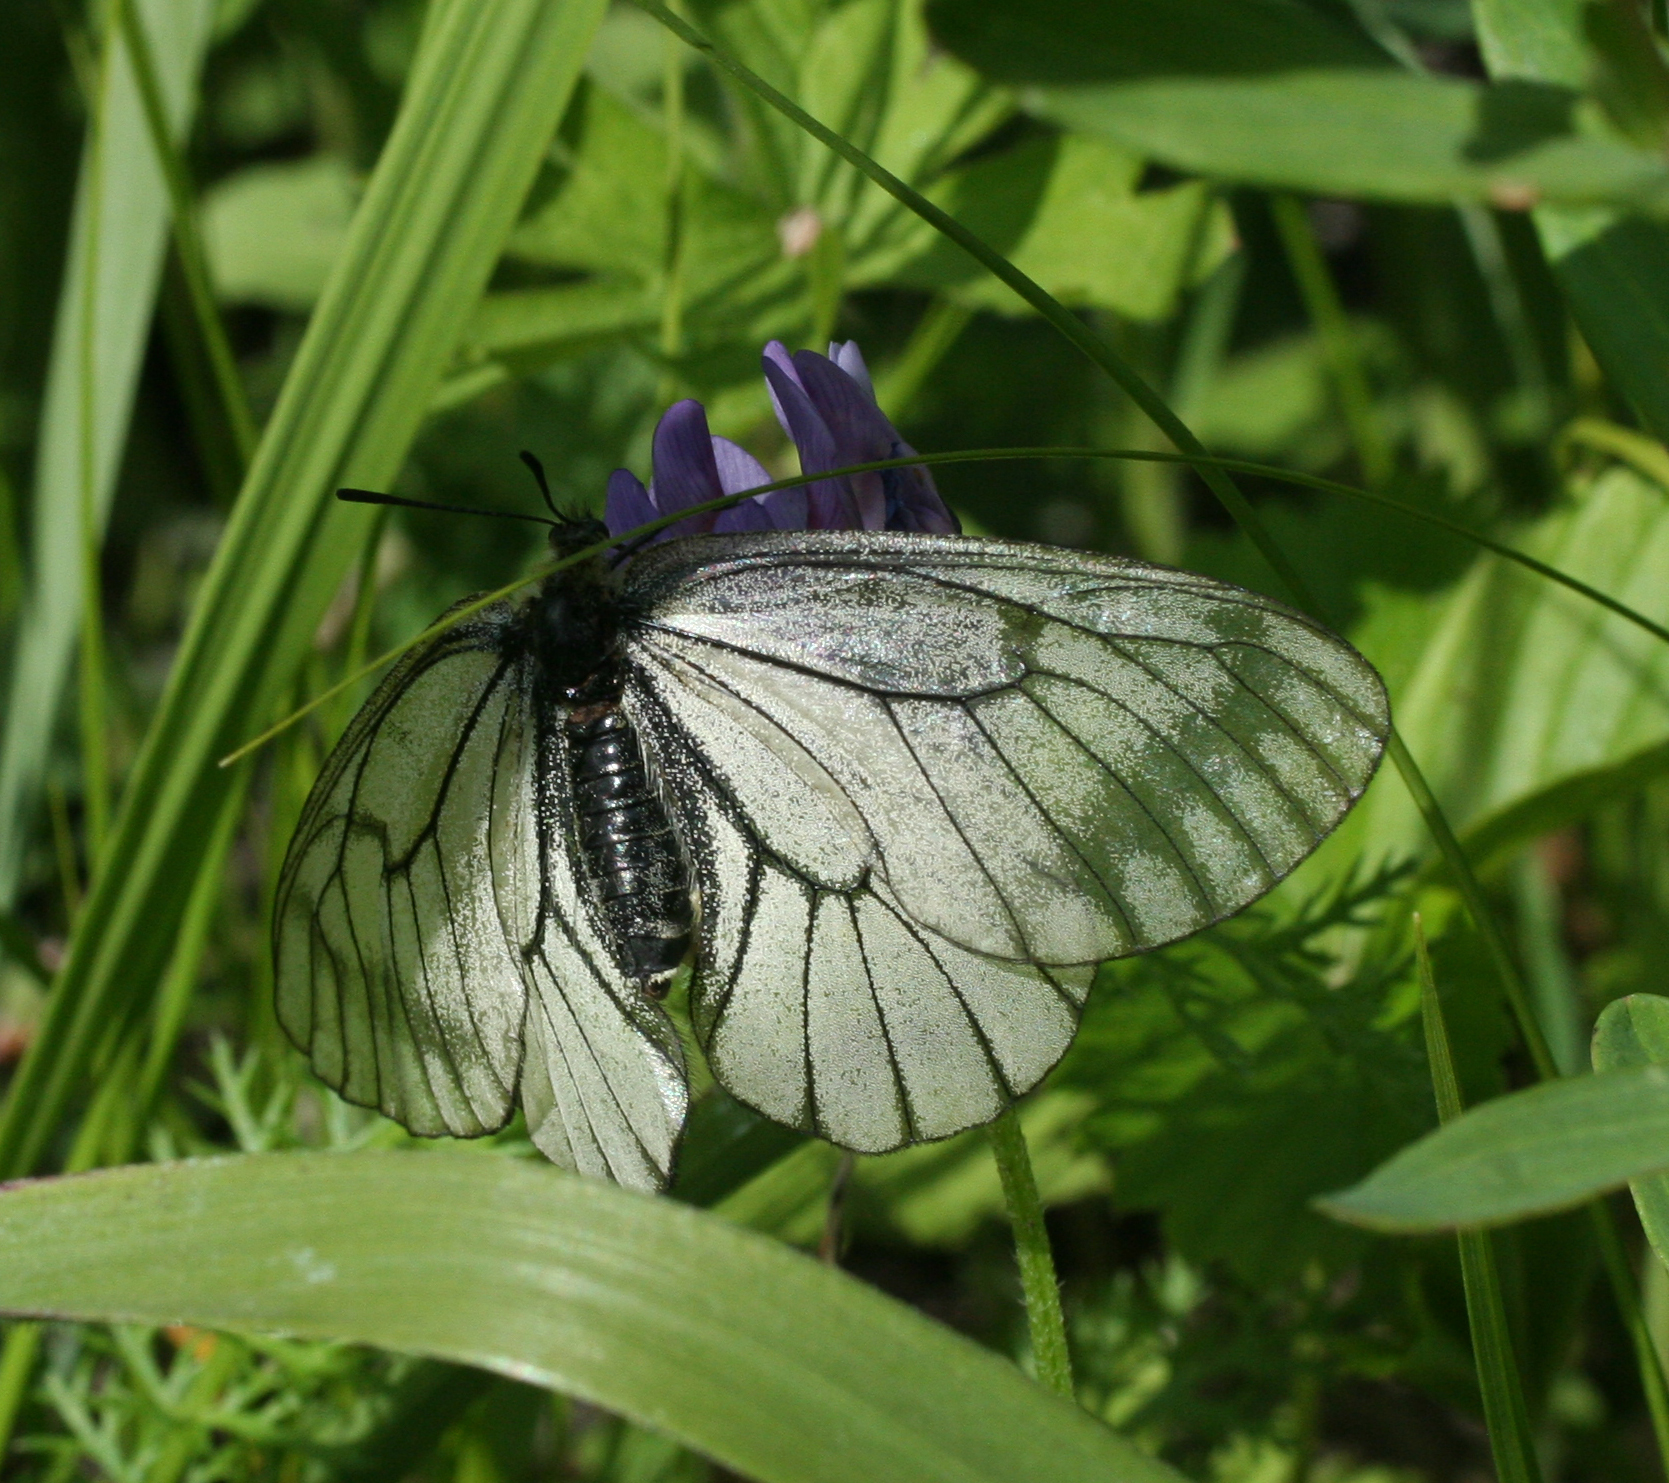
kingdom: Animalia
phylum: Arthropoda
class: Insecta
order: Lepidoptera
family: Papilionidae
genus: Parnassius
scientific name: Parnassius stubbendorfii
